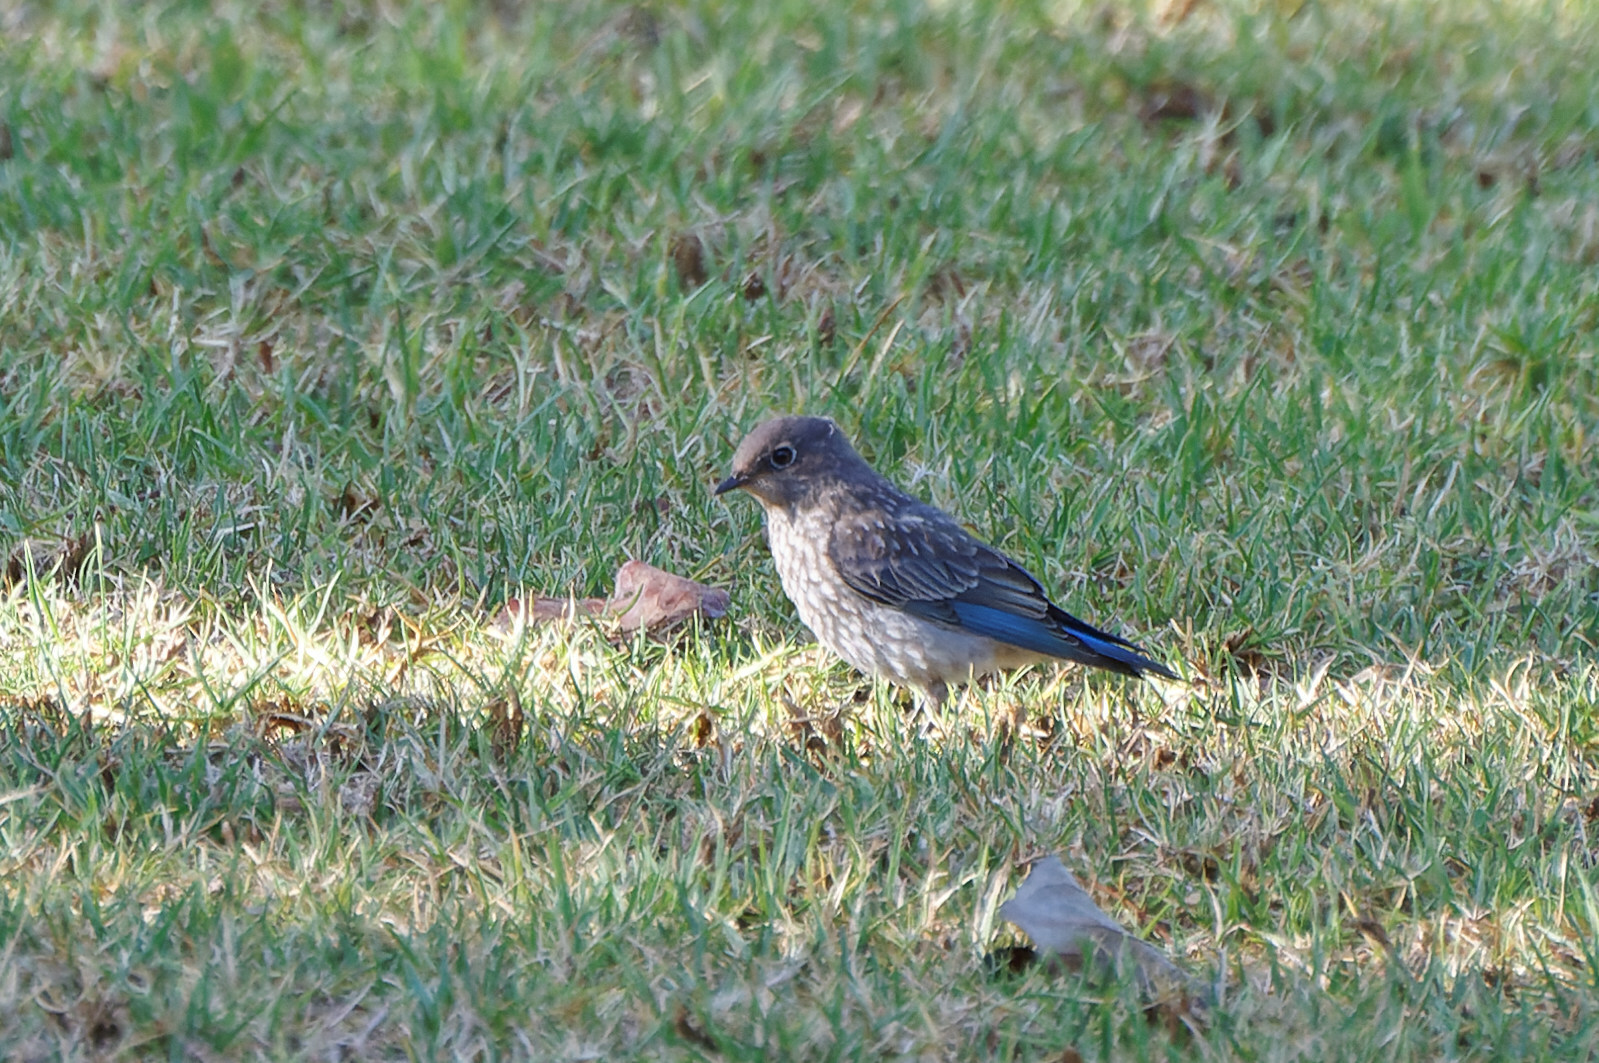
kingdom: Animalia
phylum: Chordata
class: Aves
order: Passeriformes
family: Turdidae
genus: Sialia
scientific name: Sialia mexicana
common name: Western bluebird
